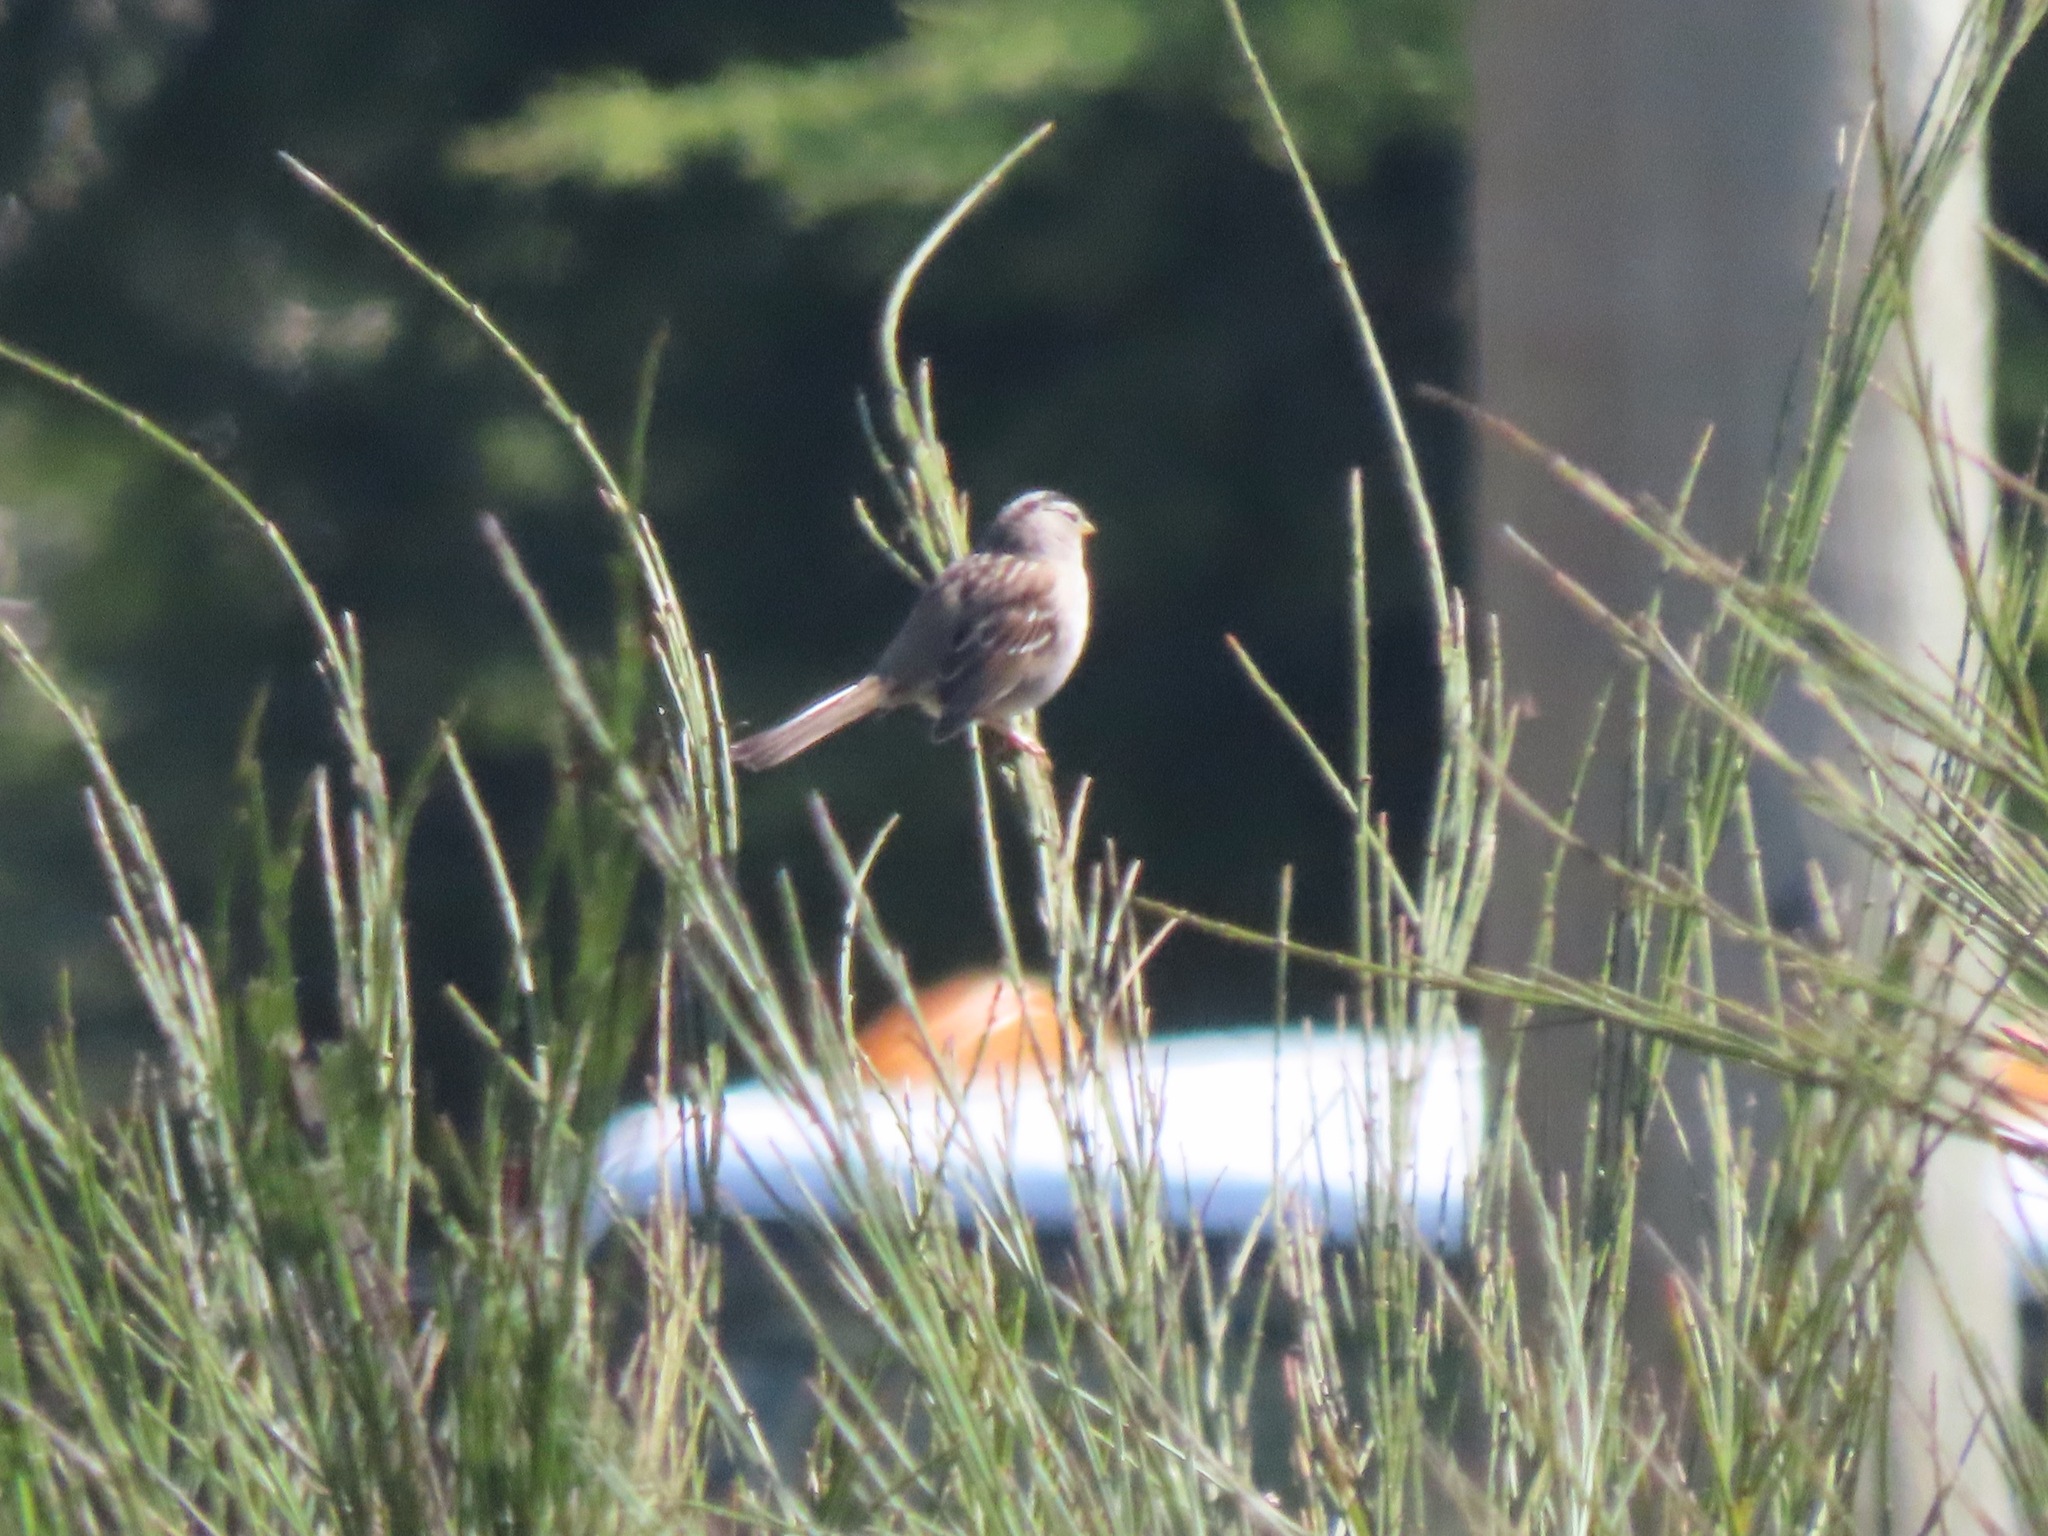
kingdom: Animalia
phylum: Chordata
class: Aves
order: Passeriformes
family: Passerellidae
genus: Zonotrichia
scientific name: Zonotrichia leucophrys
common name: White-crowned sparrow
